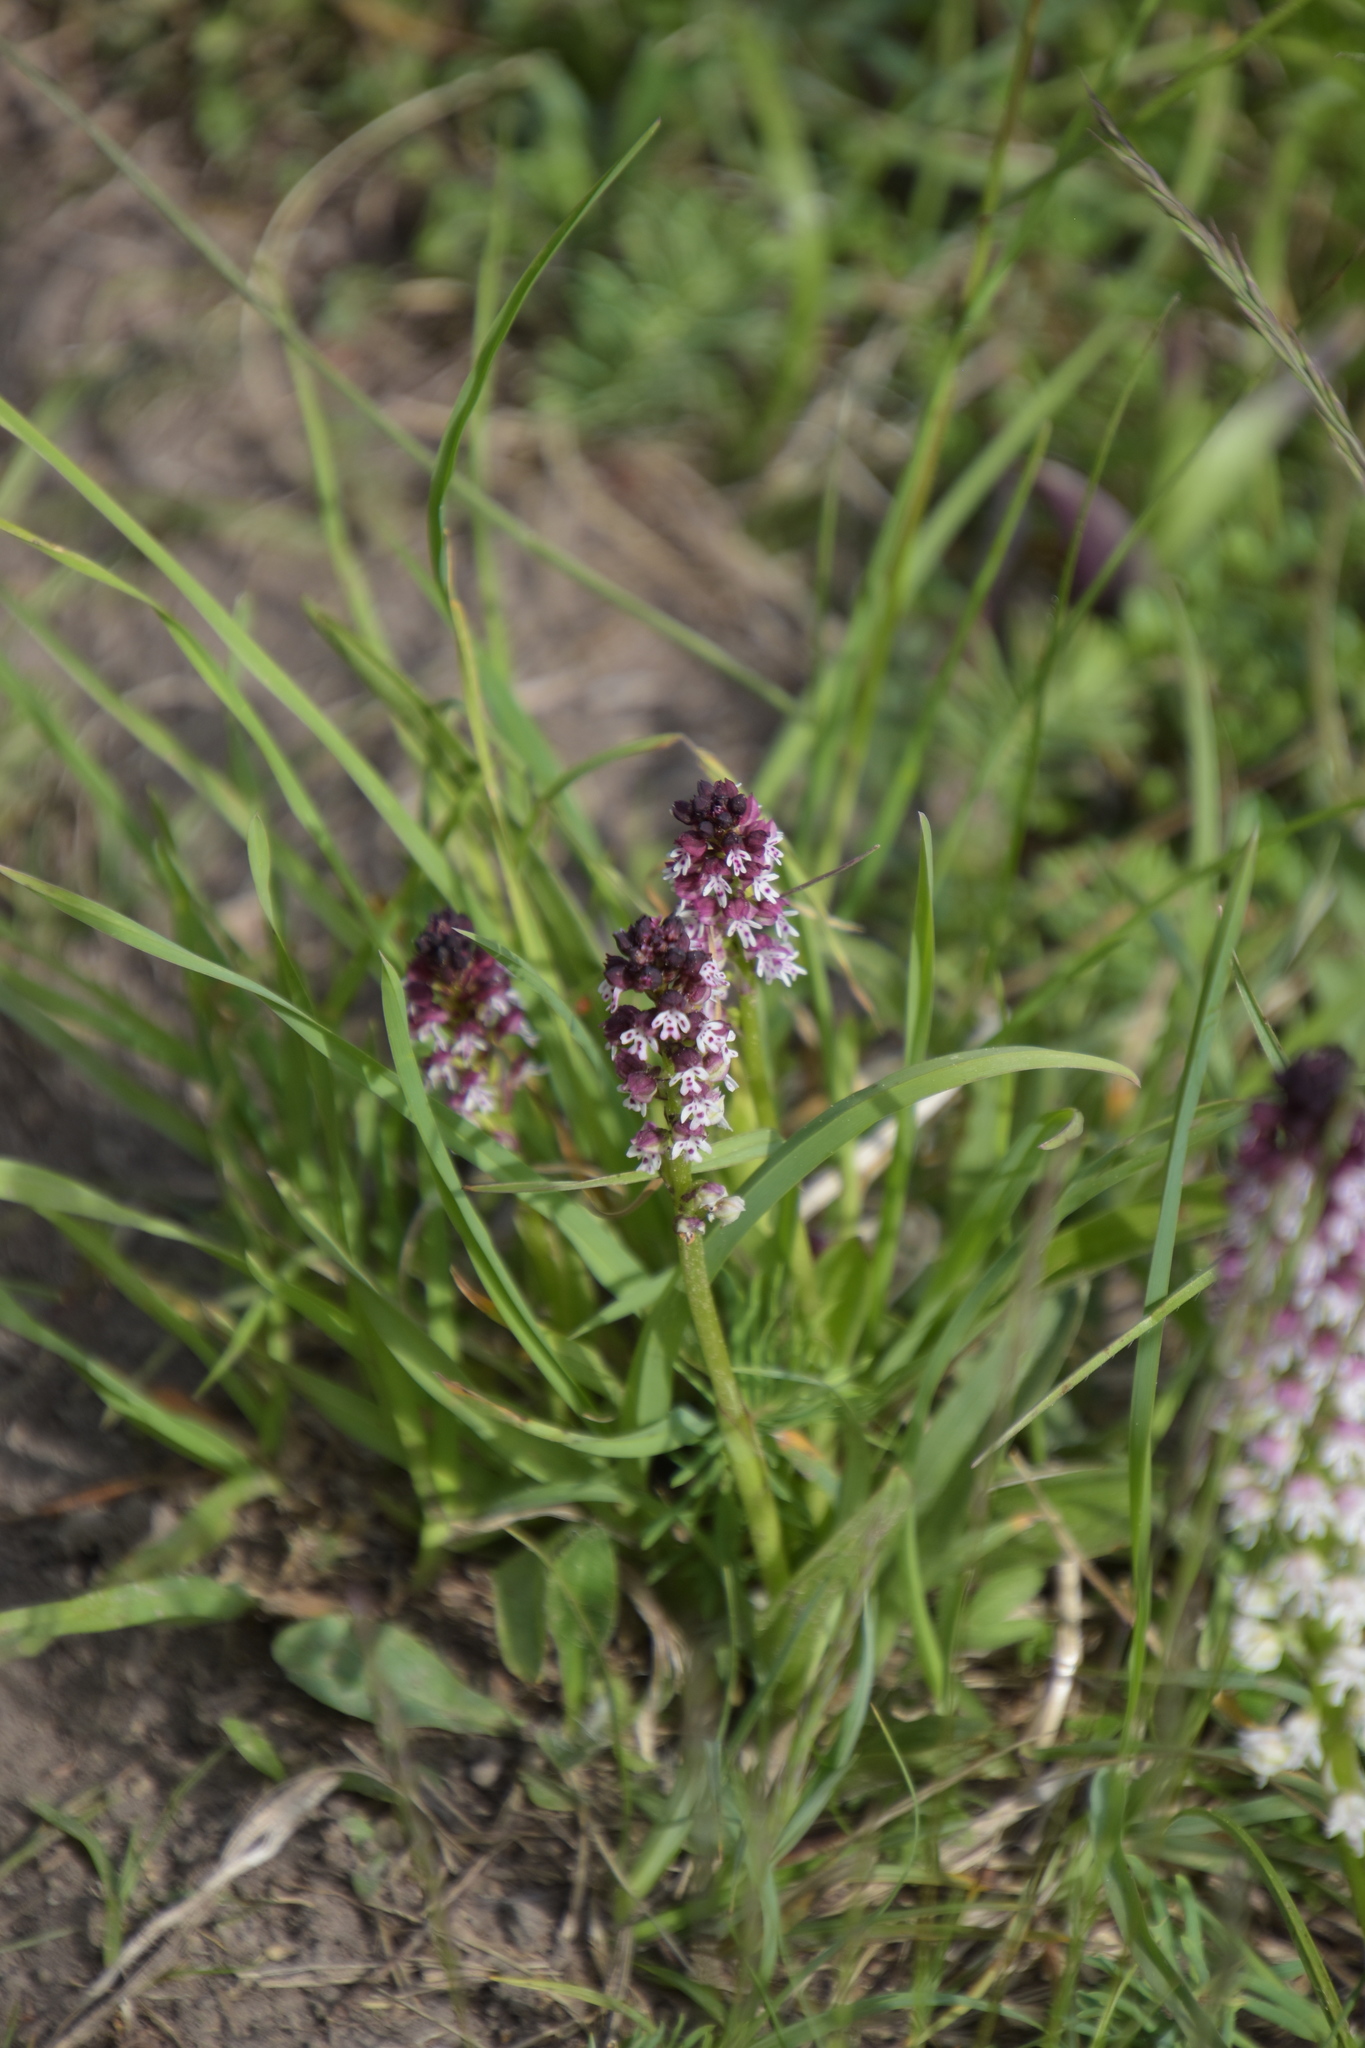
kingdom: Plantae
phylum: Tracheophyta
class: Liliopsida
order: Asparagales
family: Orchidaceae
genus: Neotinea
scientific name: Neotinea ustulata
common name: Burnt orchid
